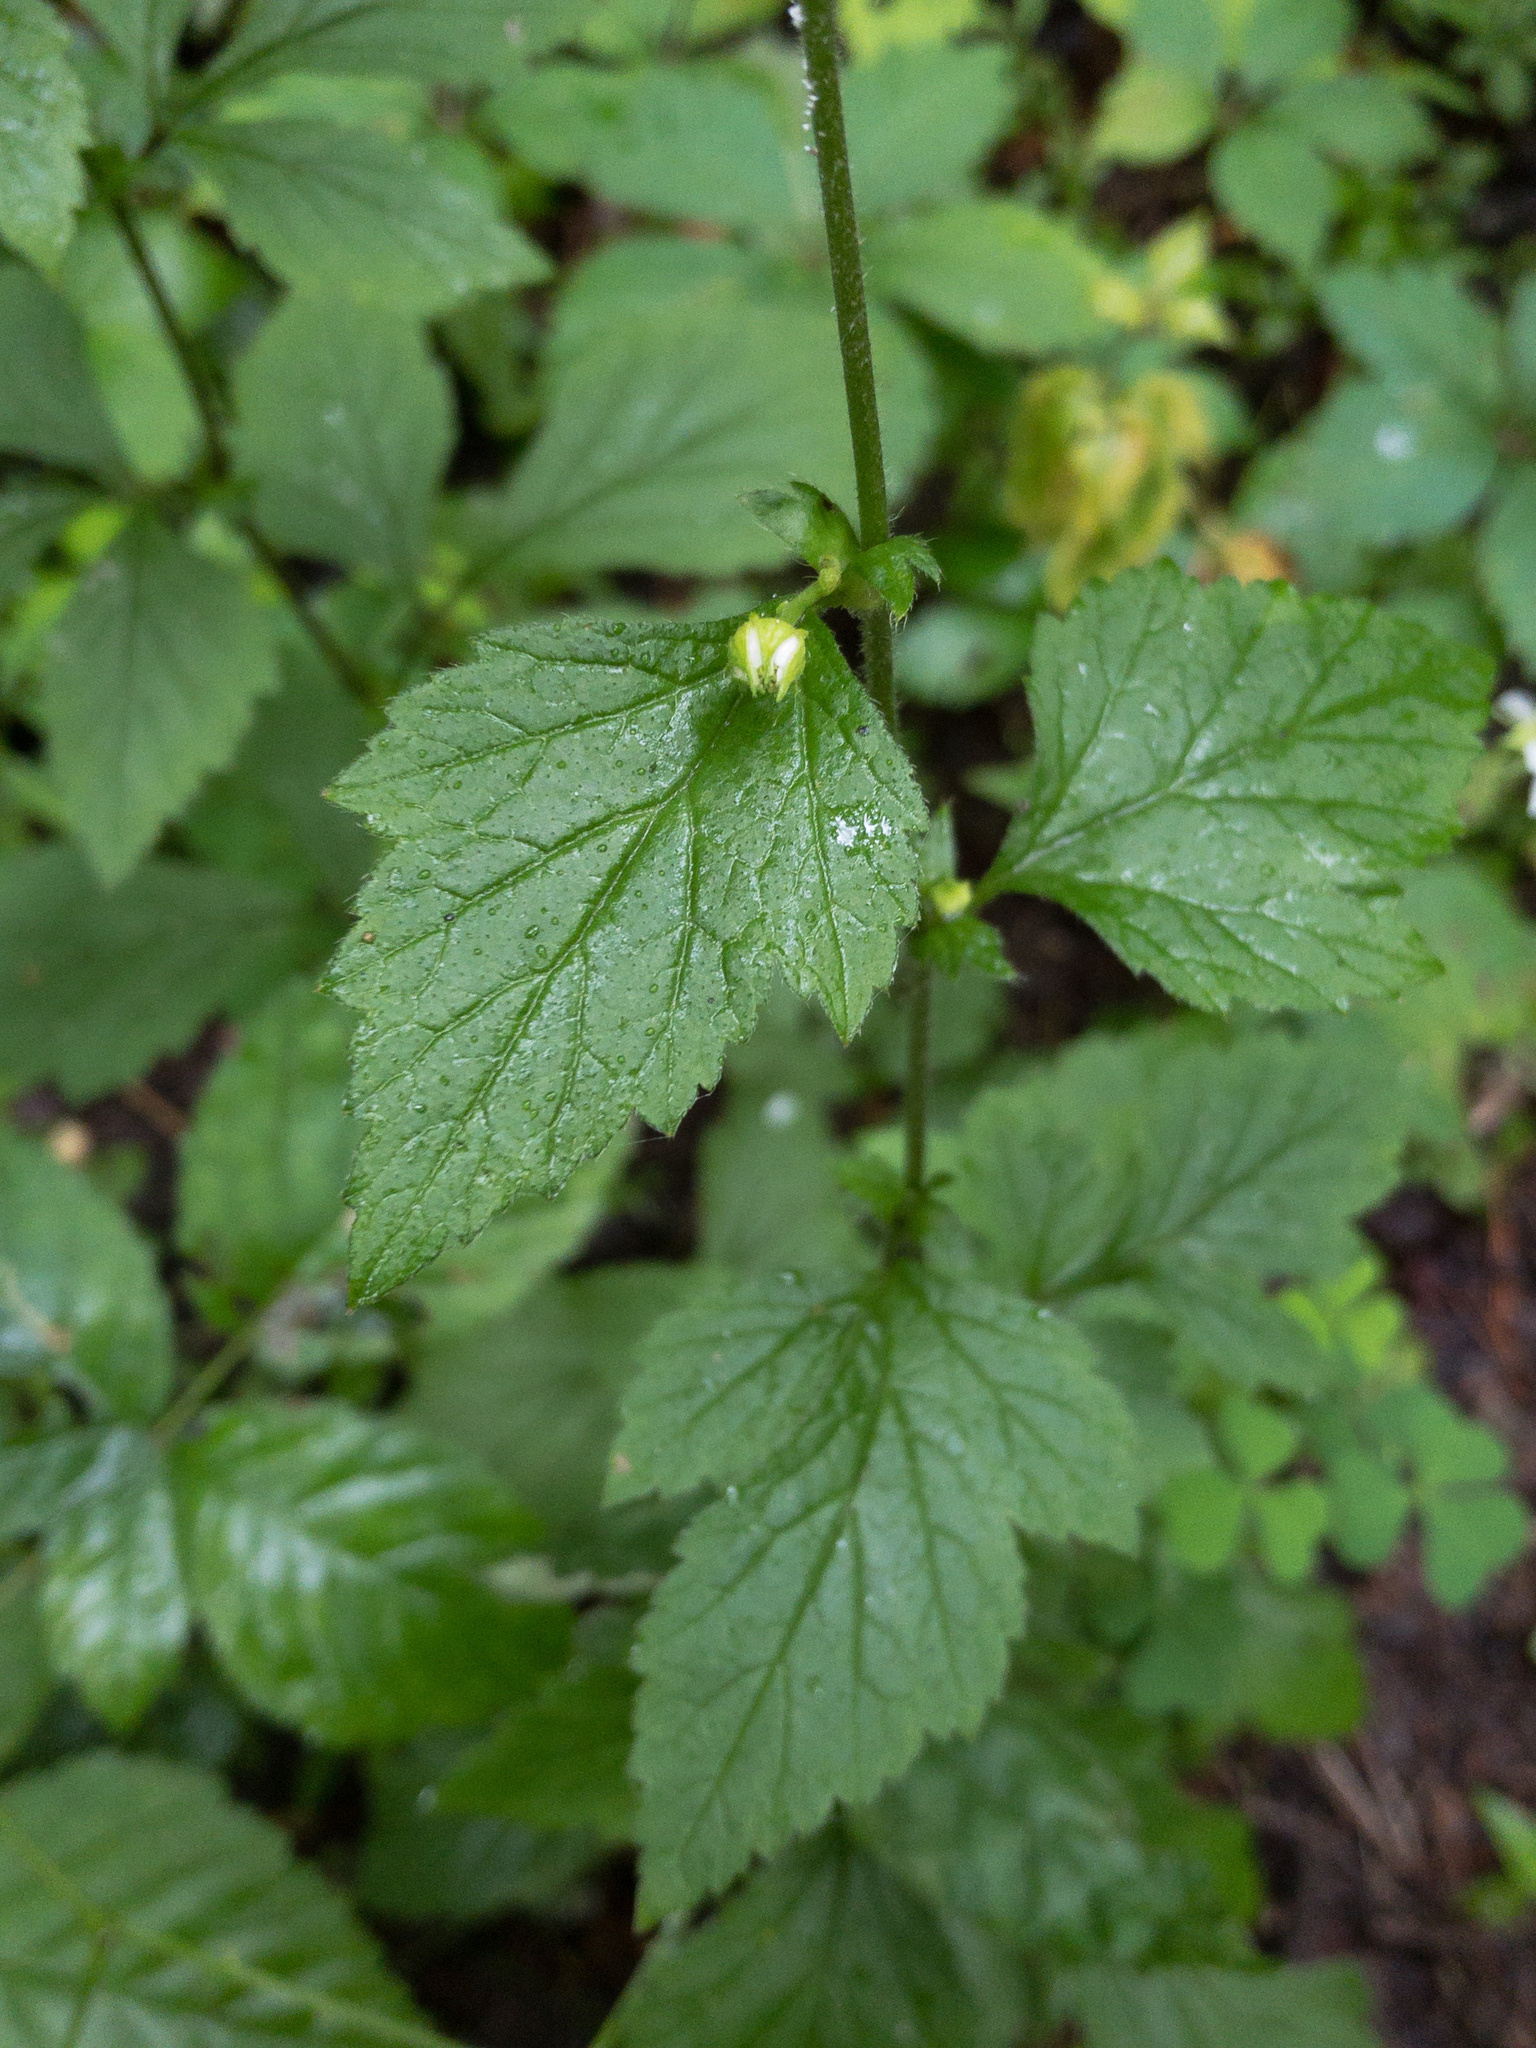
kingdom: Plantae
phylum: Tracheophyta
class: Magnoliopsida
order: Rosales
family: Rosaceae
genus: Geum
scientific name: Geum canadense
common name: White avens
